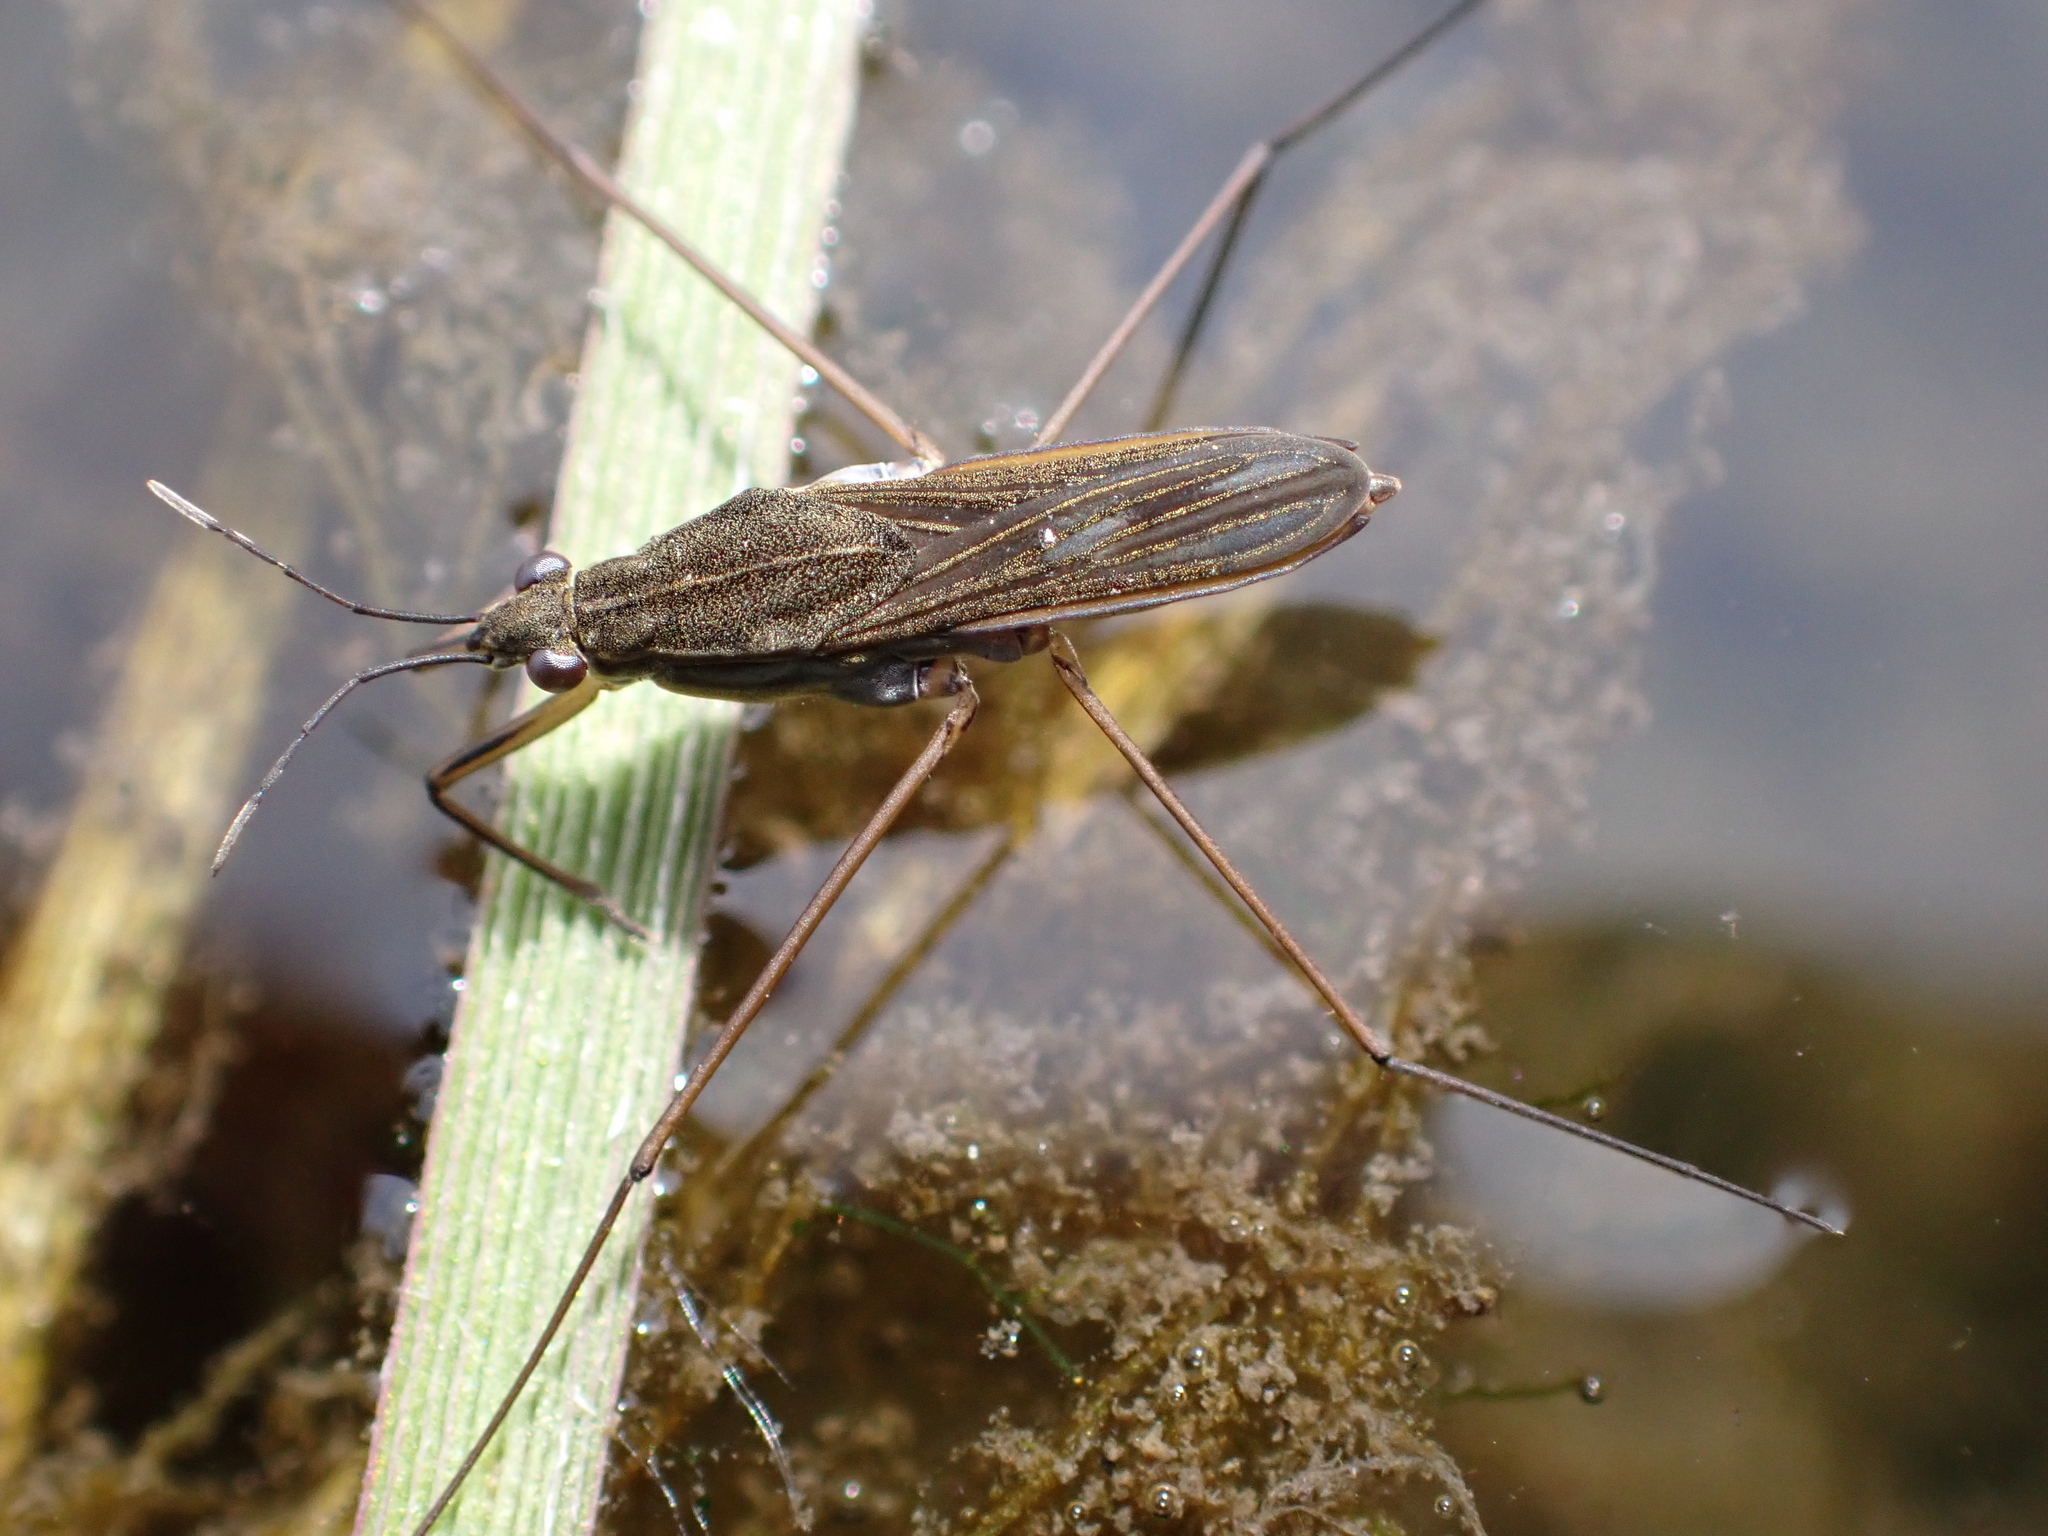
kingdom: Animalia
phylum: Arthropoda
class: Insecta
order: Hemiptera
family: Gerridae
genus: Gerris
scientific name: Gerris lacustris
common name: Common pondskater
